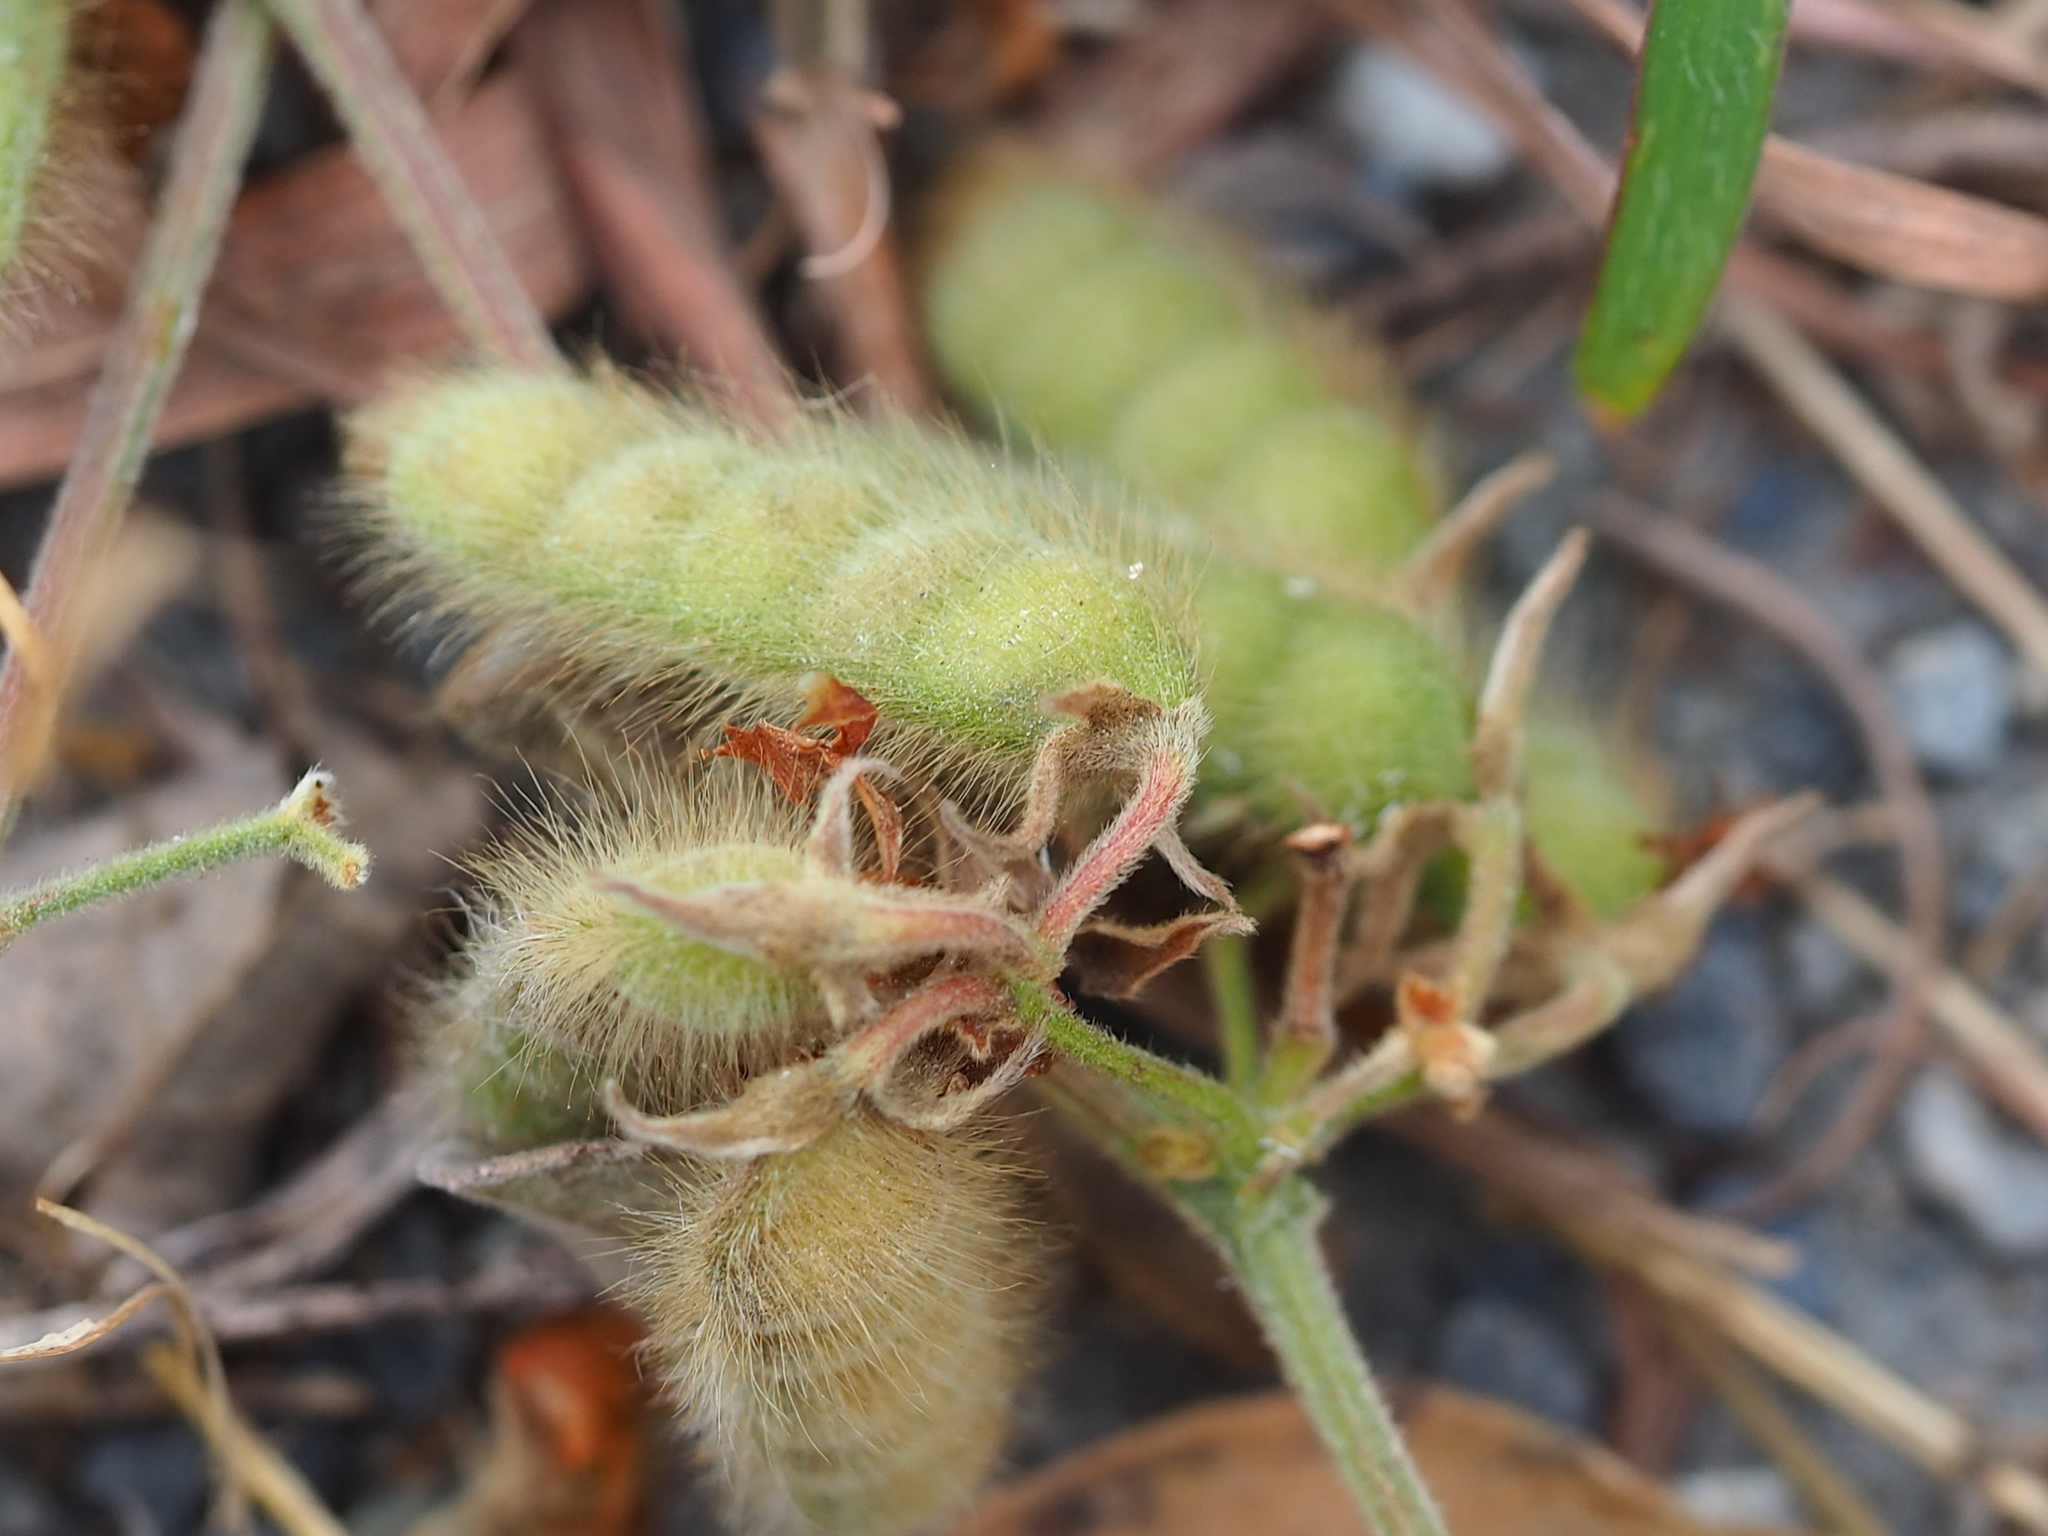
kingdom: Plantae
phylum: Tracheophyta
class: Magnoliopsida
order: Fabales
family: Fabaceae
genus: Cajanus
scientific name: Cajanus scarabaeoides
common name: Showy pigeonpea
